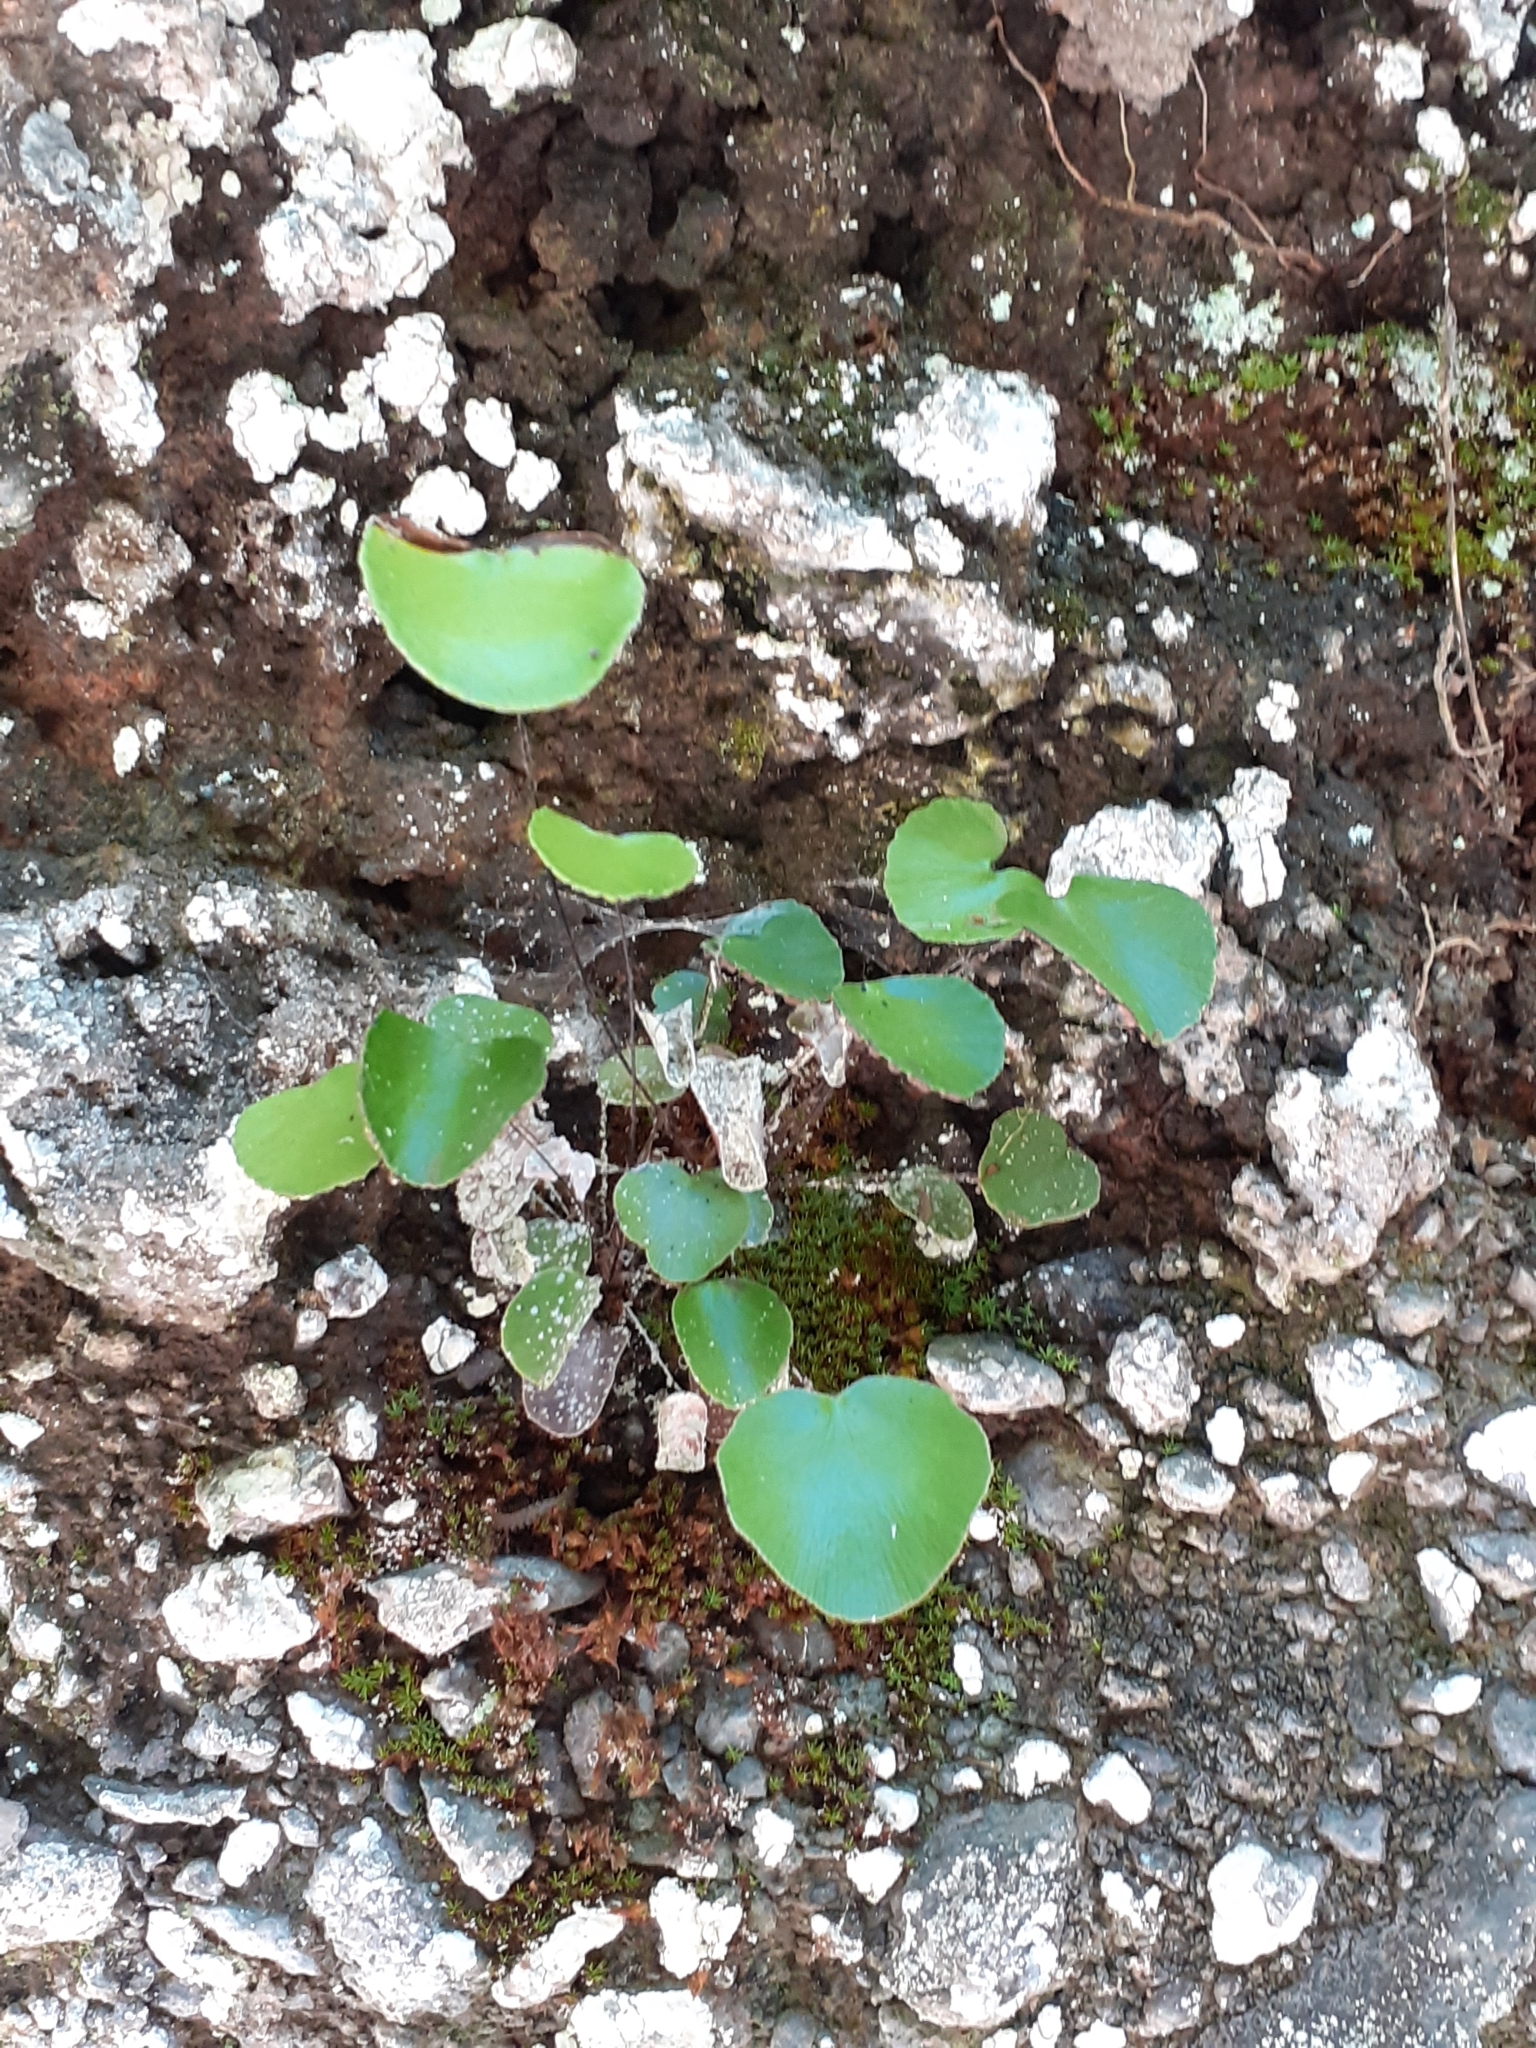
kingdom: Plantae
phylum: Tracheophyta
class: Polypodiopsida
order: Polypodiales
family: Pteridaceae
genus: Adiantum
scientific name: Adiantum reniforme
